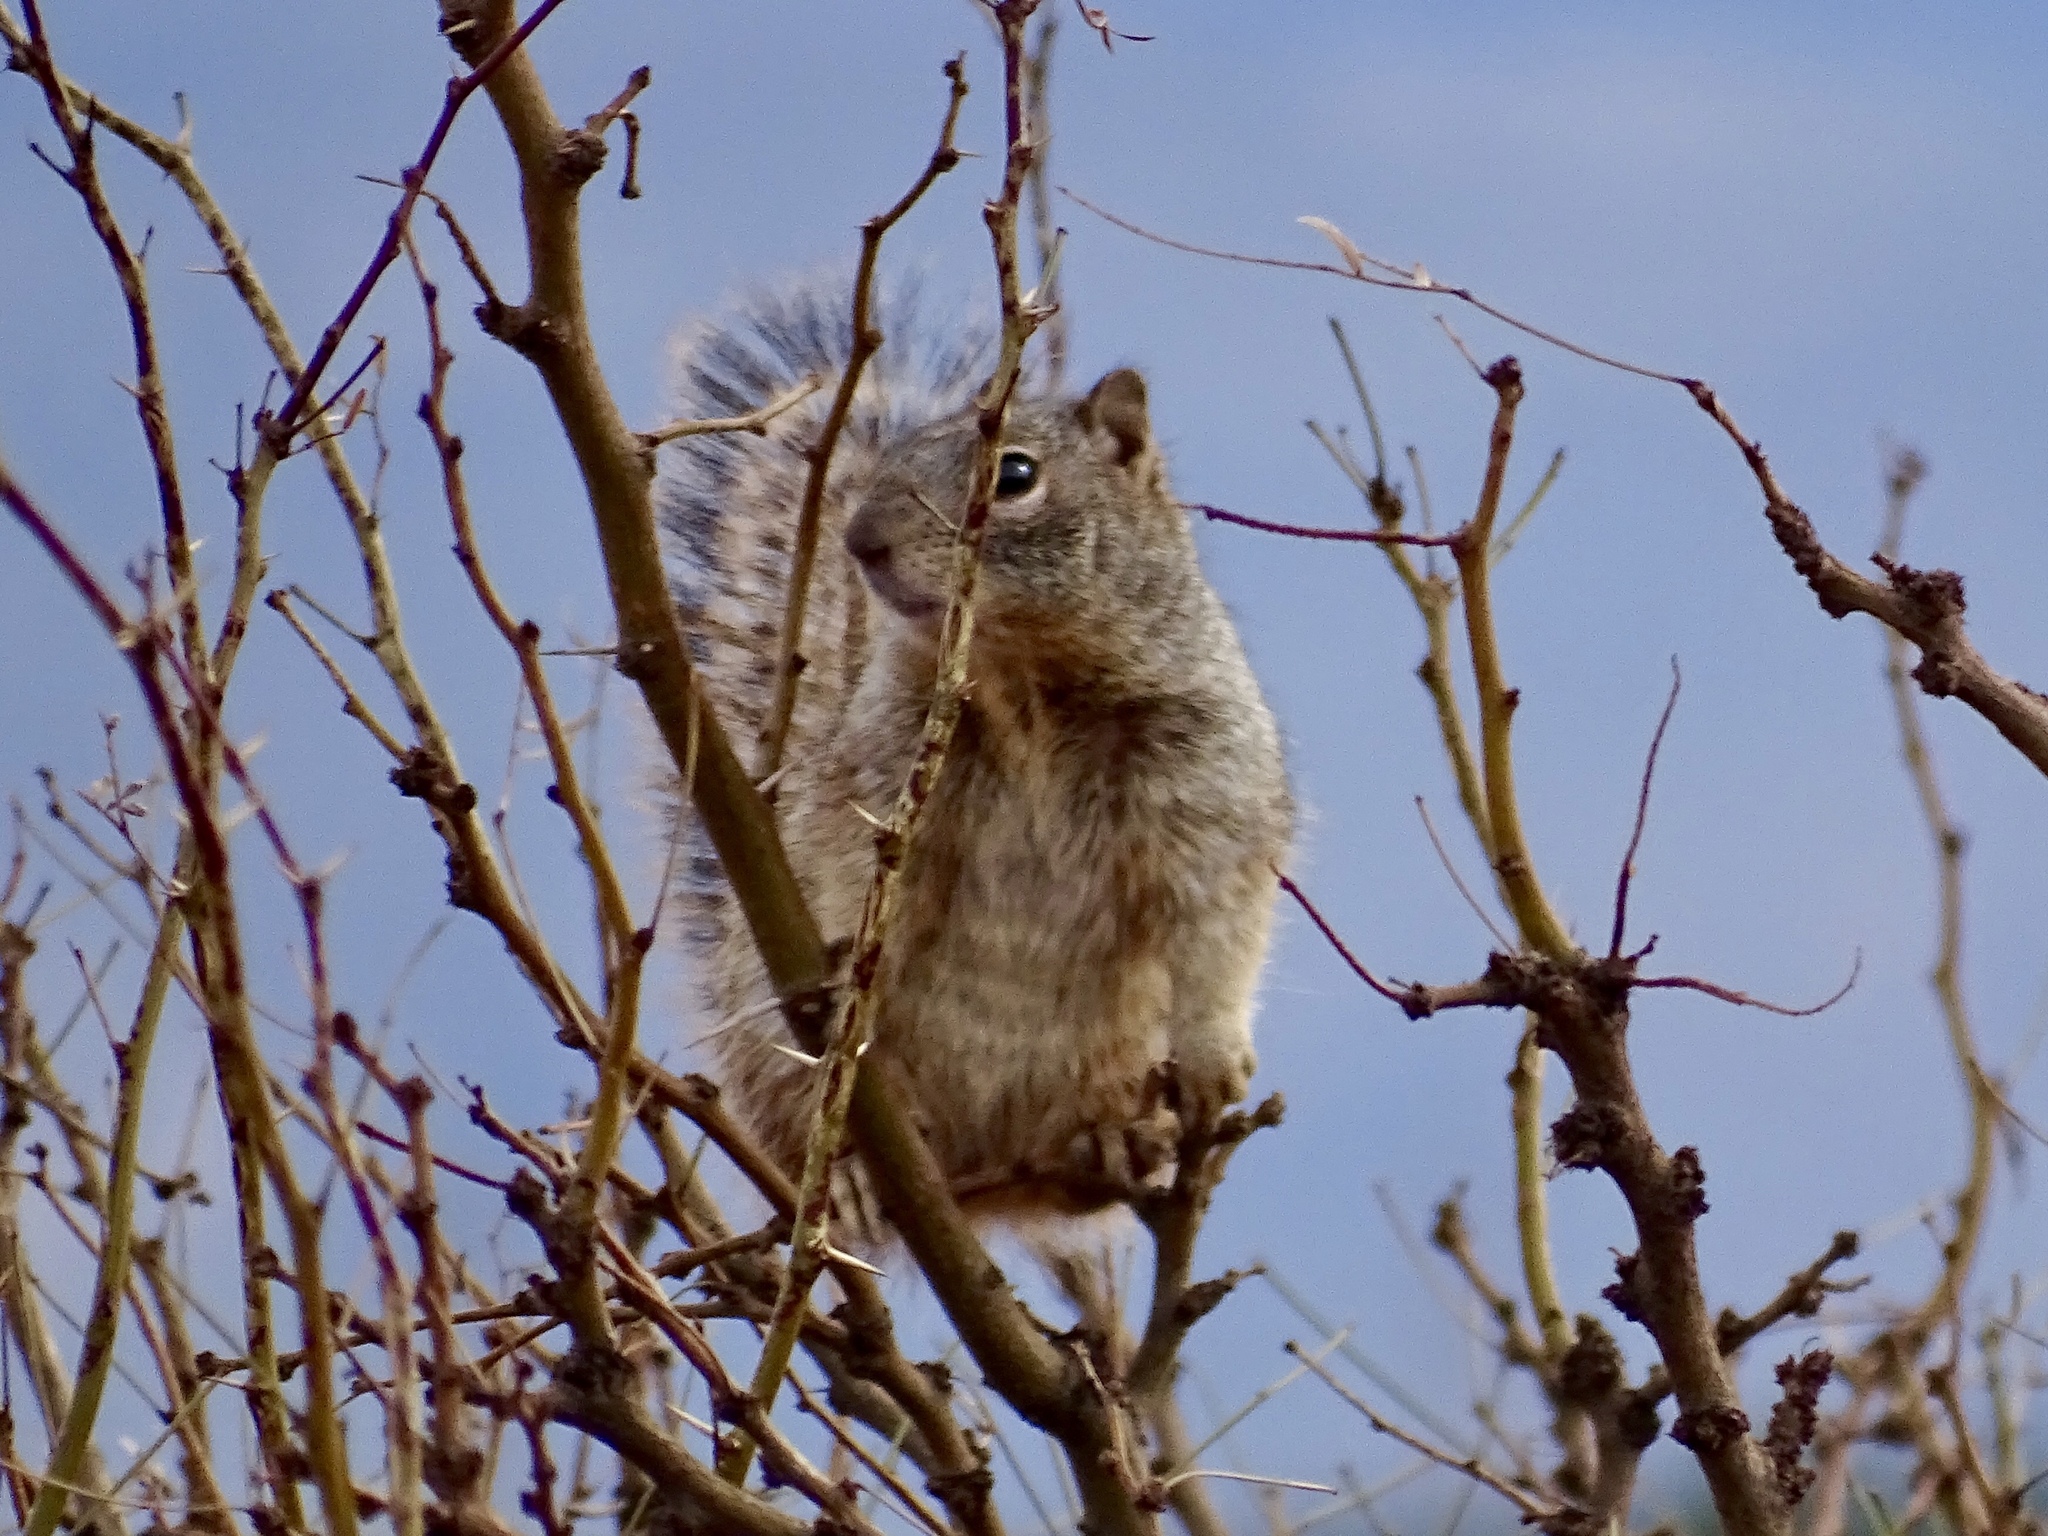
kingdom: Animalia
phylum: Chordata
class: Mammalia
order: Rodentia
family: Sciuridae
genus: Otospermophilus
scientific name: Otospermophilus variegatus
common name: Rock squirrel
